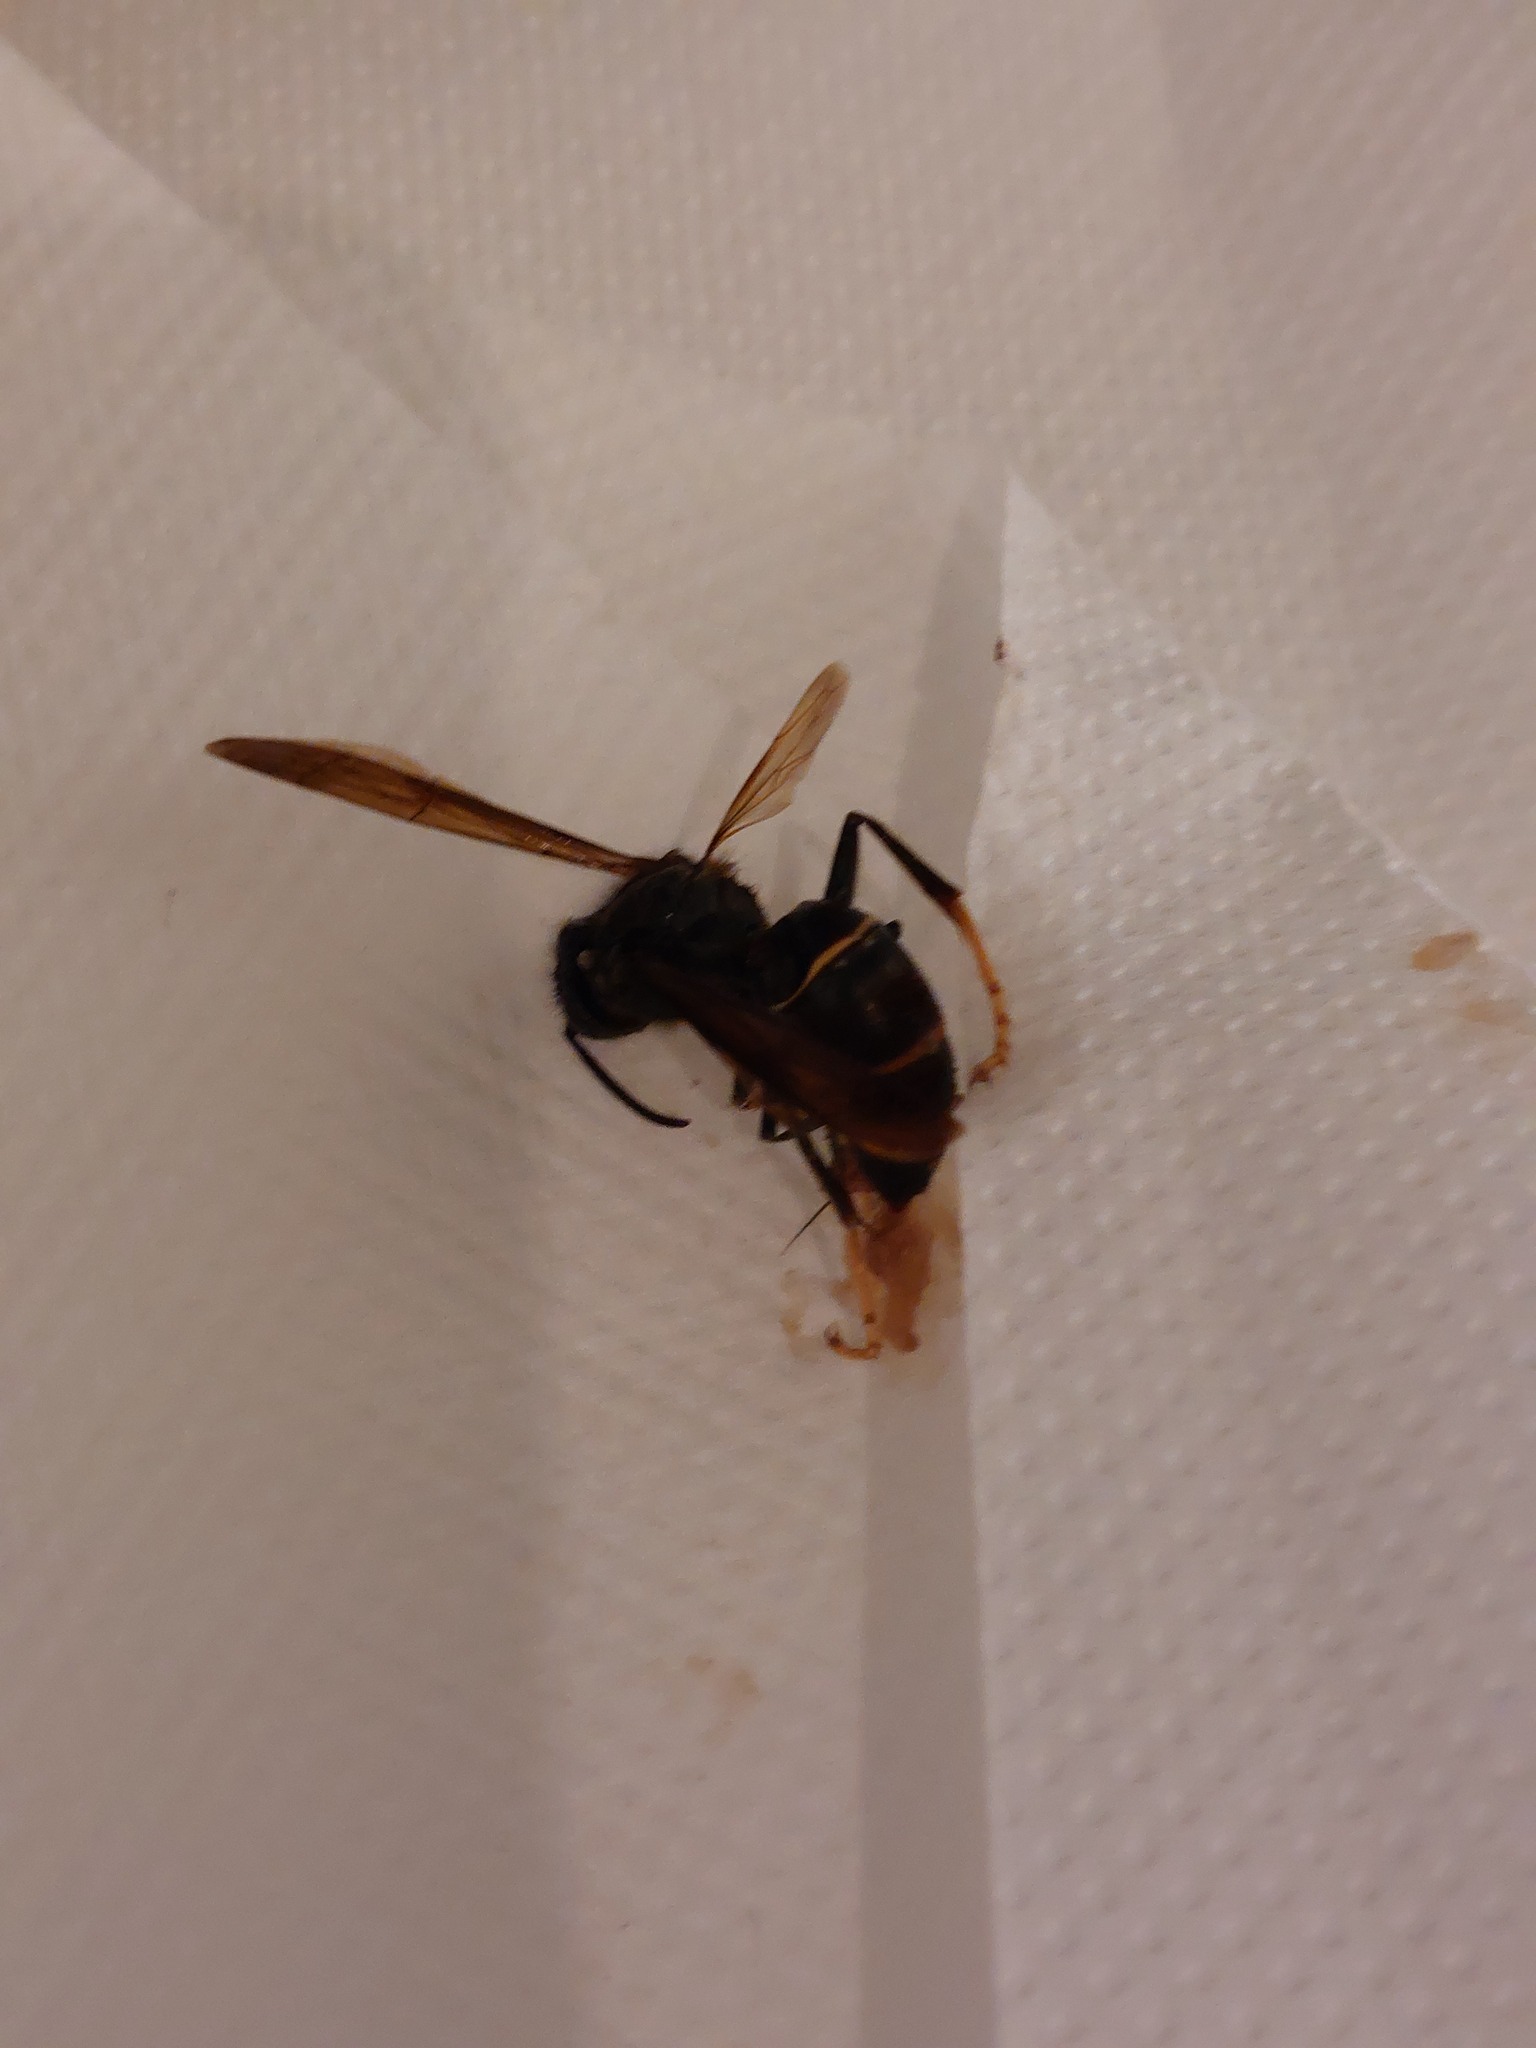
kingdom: Animalia
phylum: Arthropoda
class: Insecta
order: Hymenoptera
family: Vespidae
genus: Vespa
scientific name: Vespa velutina
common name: Asian hornet
